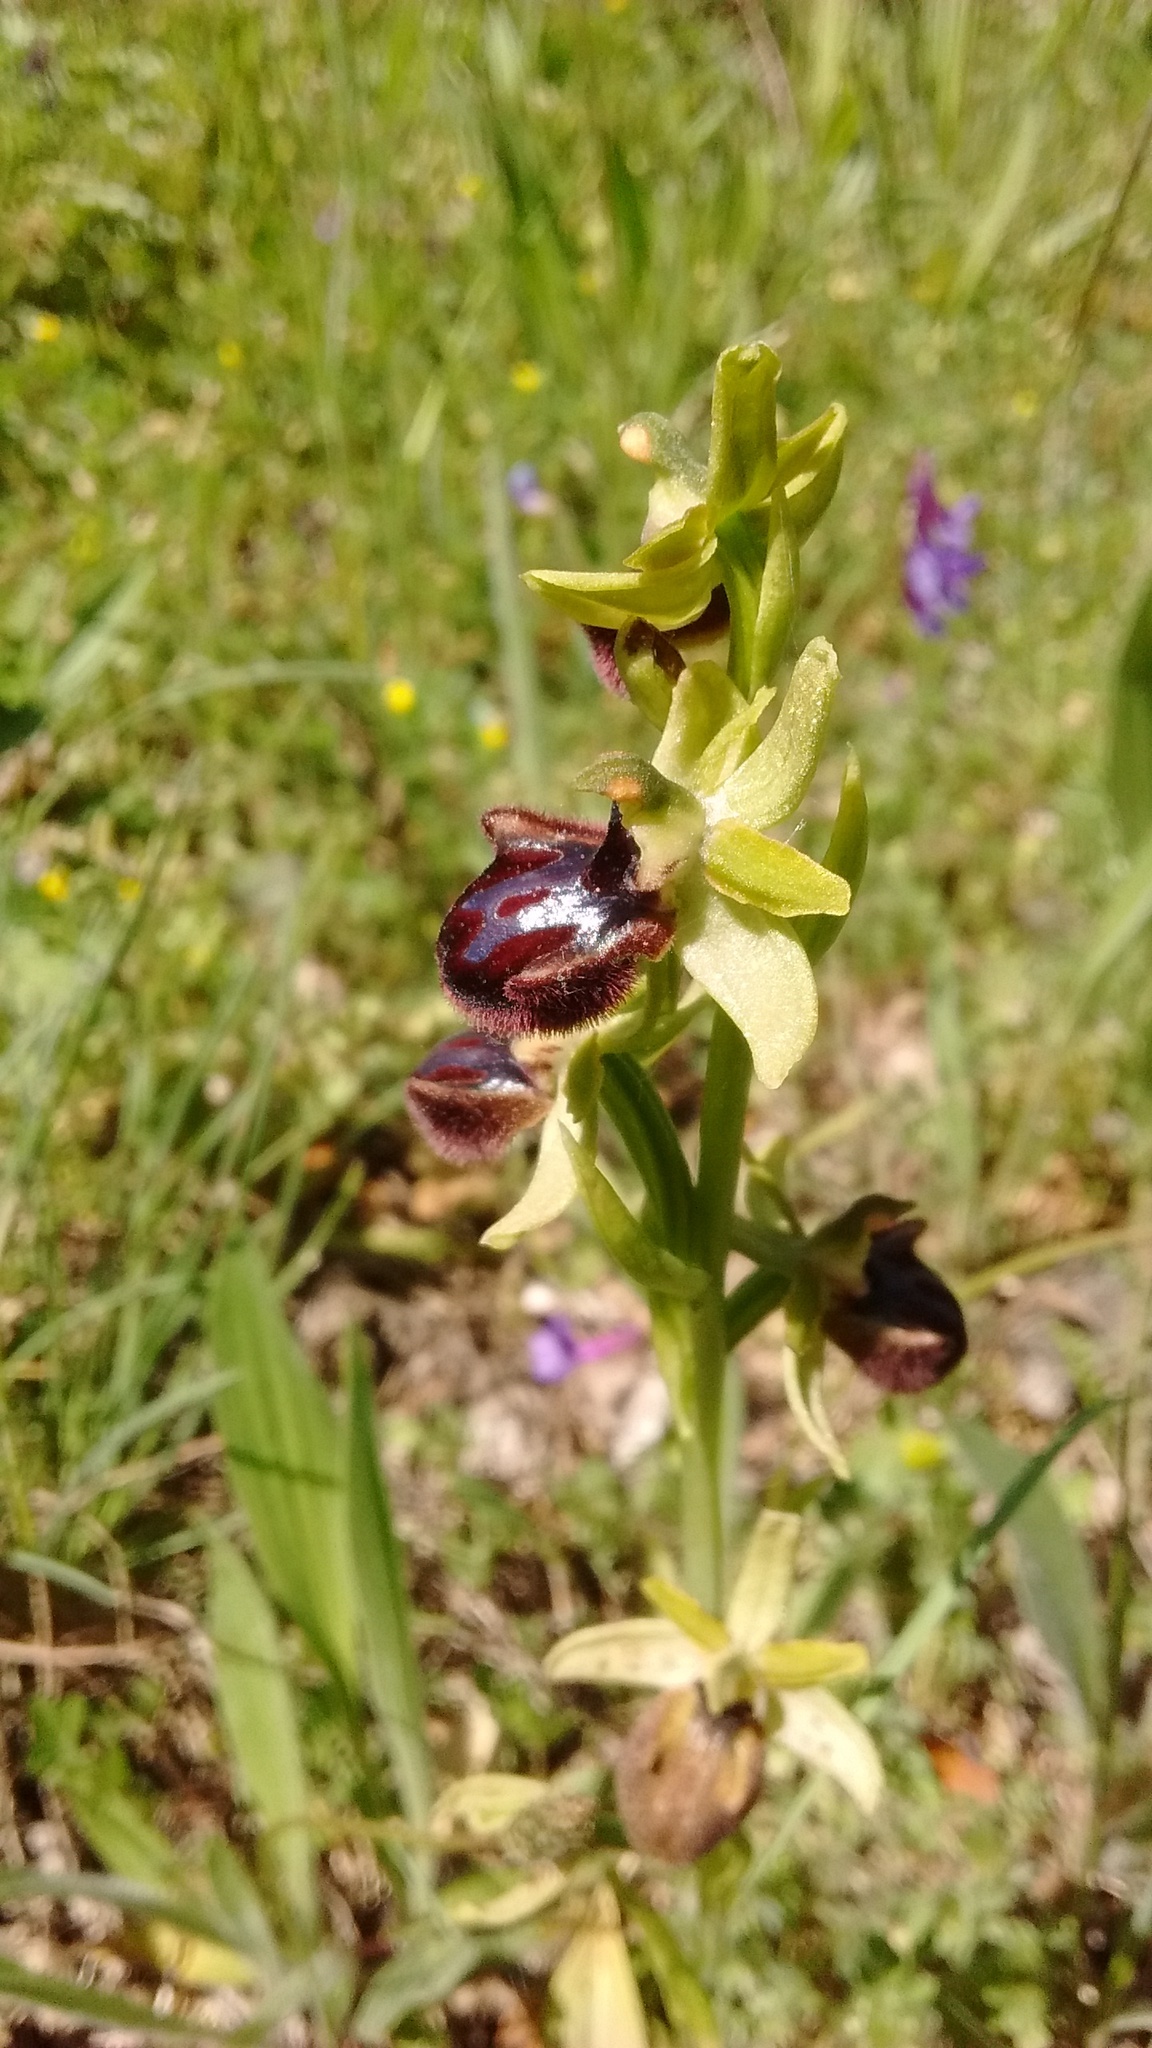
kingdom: Plantae
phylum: Tracheophyta
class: Liliopsida
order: Asparagales
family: Orchidaceae
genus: Ophrys
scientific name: Ophrys sphegodes
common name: Early spider-orchid
